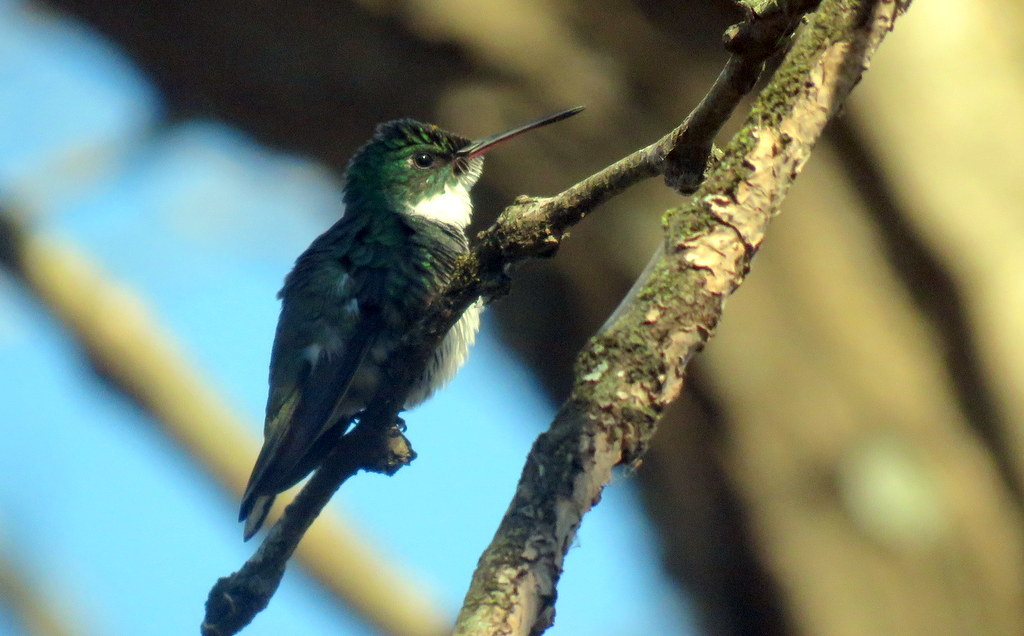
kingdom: Animalia
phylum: Chordata
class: Aves
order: Apodiformes
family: Trochilidae
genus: Leucochloris
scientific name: Leucochloris albicollis
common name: White-throated hummingbird
